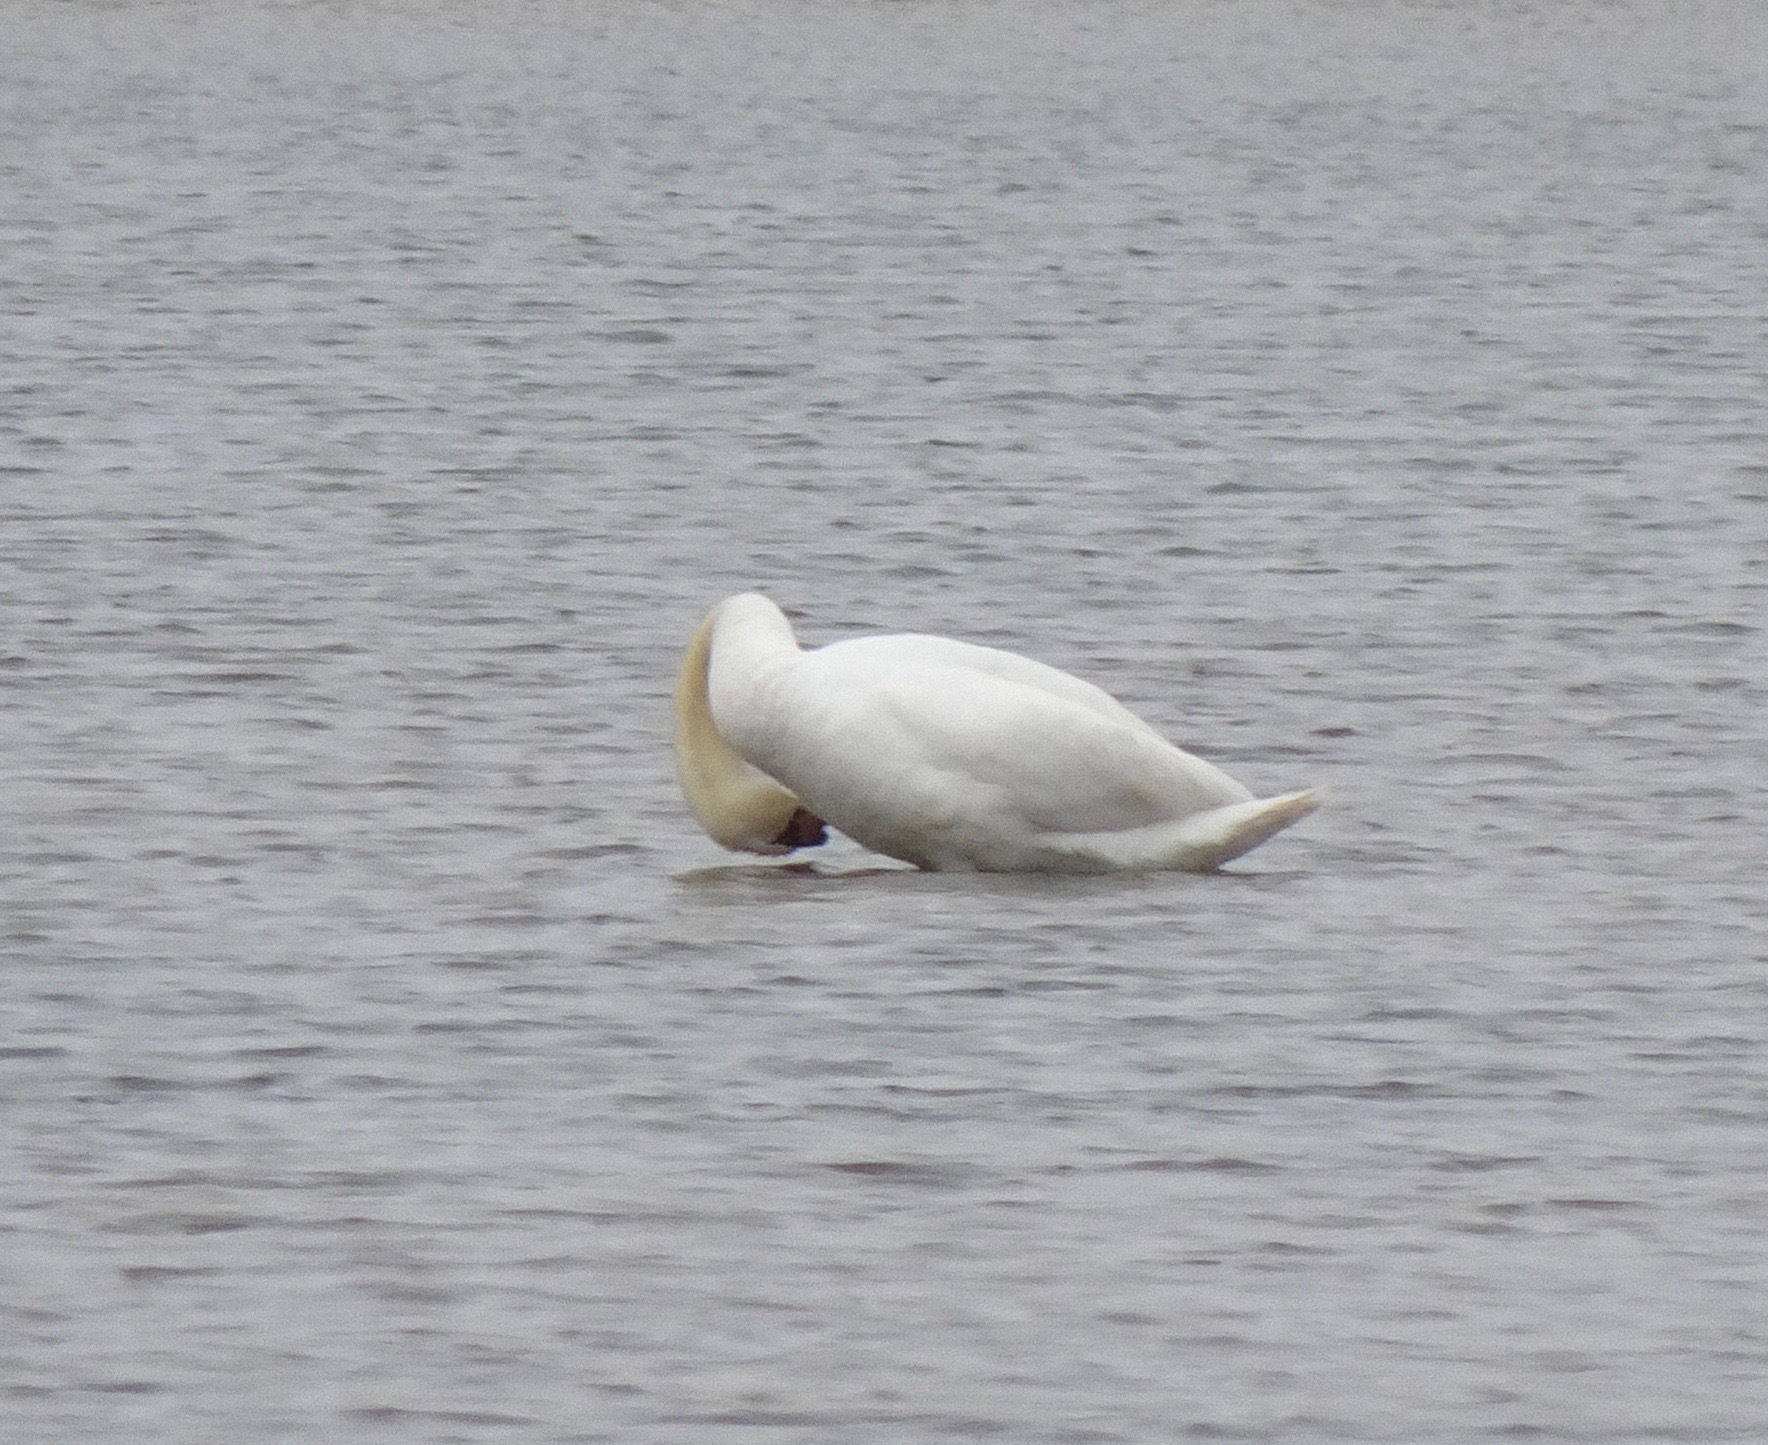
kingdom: Animalia
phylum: Chordata
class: Aves
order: Anseriformes
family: Anatidae
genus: Cygnus
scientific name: Cygnus olor
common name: Mute swan
